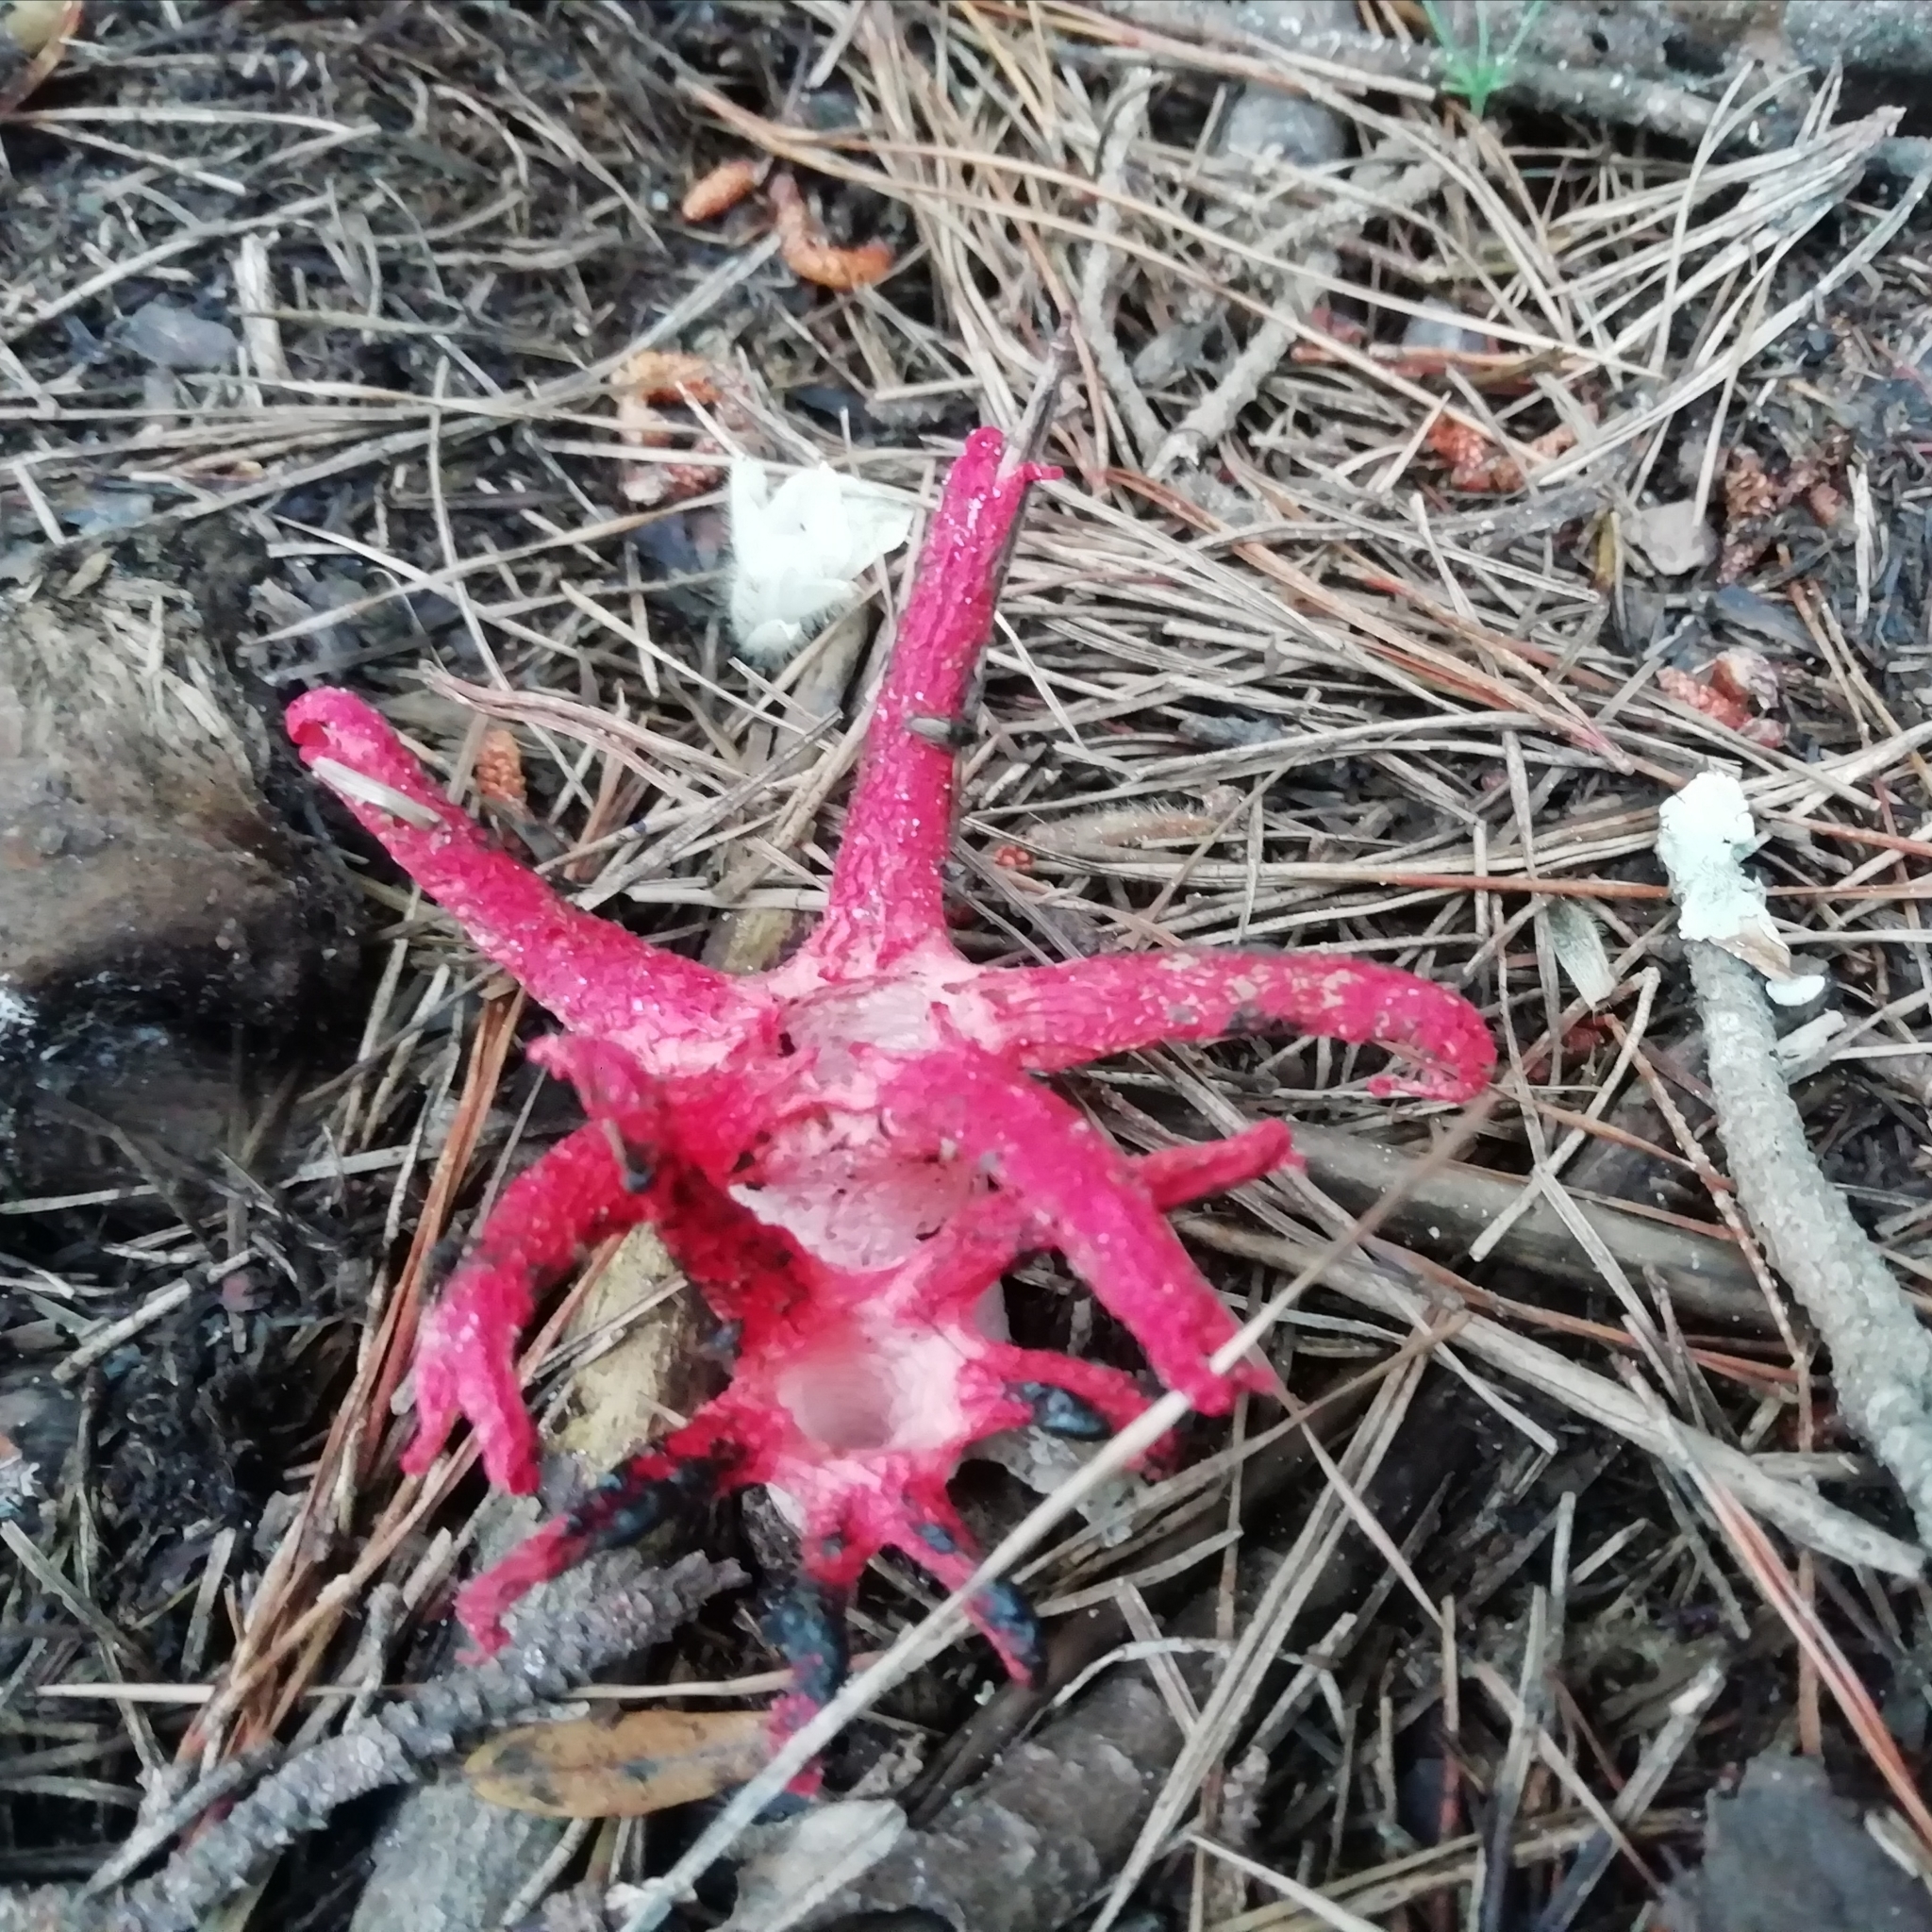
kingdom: Fungi
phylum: Basidiomycota
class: Agaricomycetes
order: Phallales
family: Phallaceae
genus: Clathrus
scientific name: Clathrus archeri
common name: Devil's fingers
